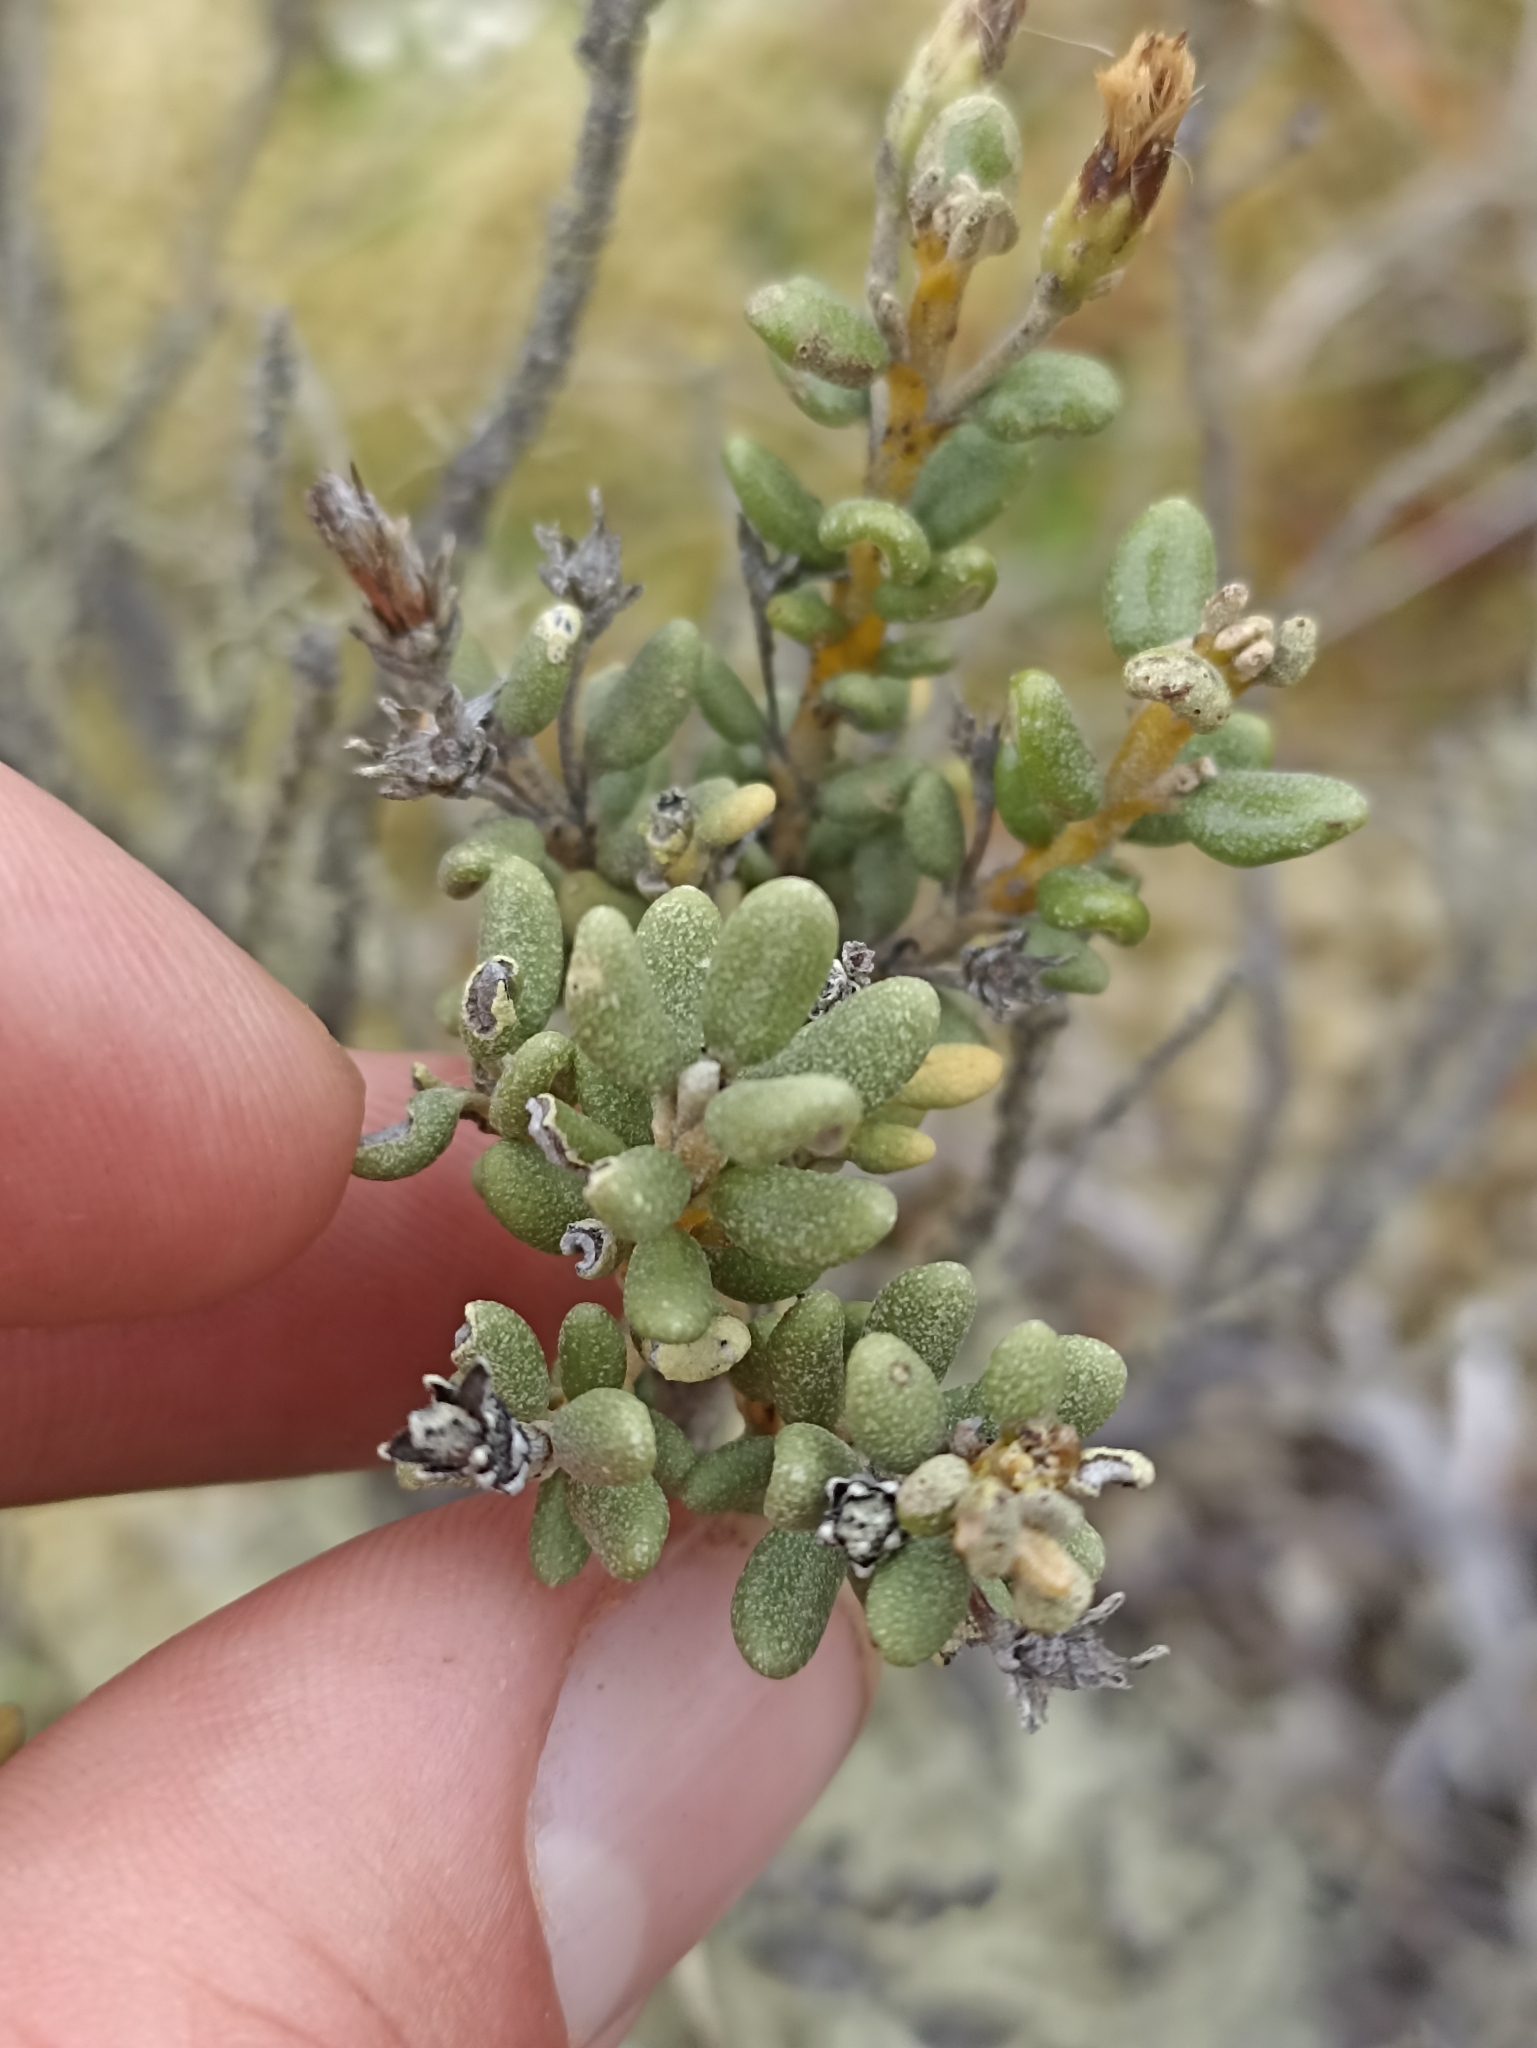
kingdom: Plantae
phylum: Tracheophyta
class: Magnoliopsida
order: Asterales
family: Asteraceae
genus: Olearia
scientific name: Olearia cymbifolia
